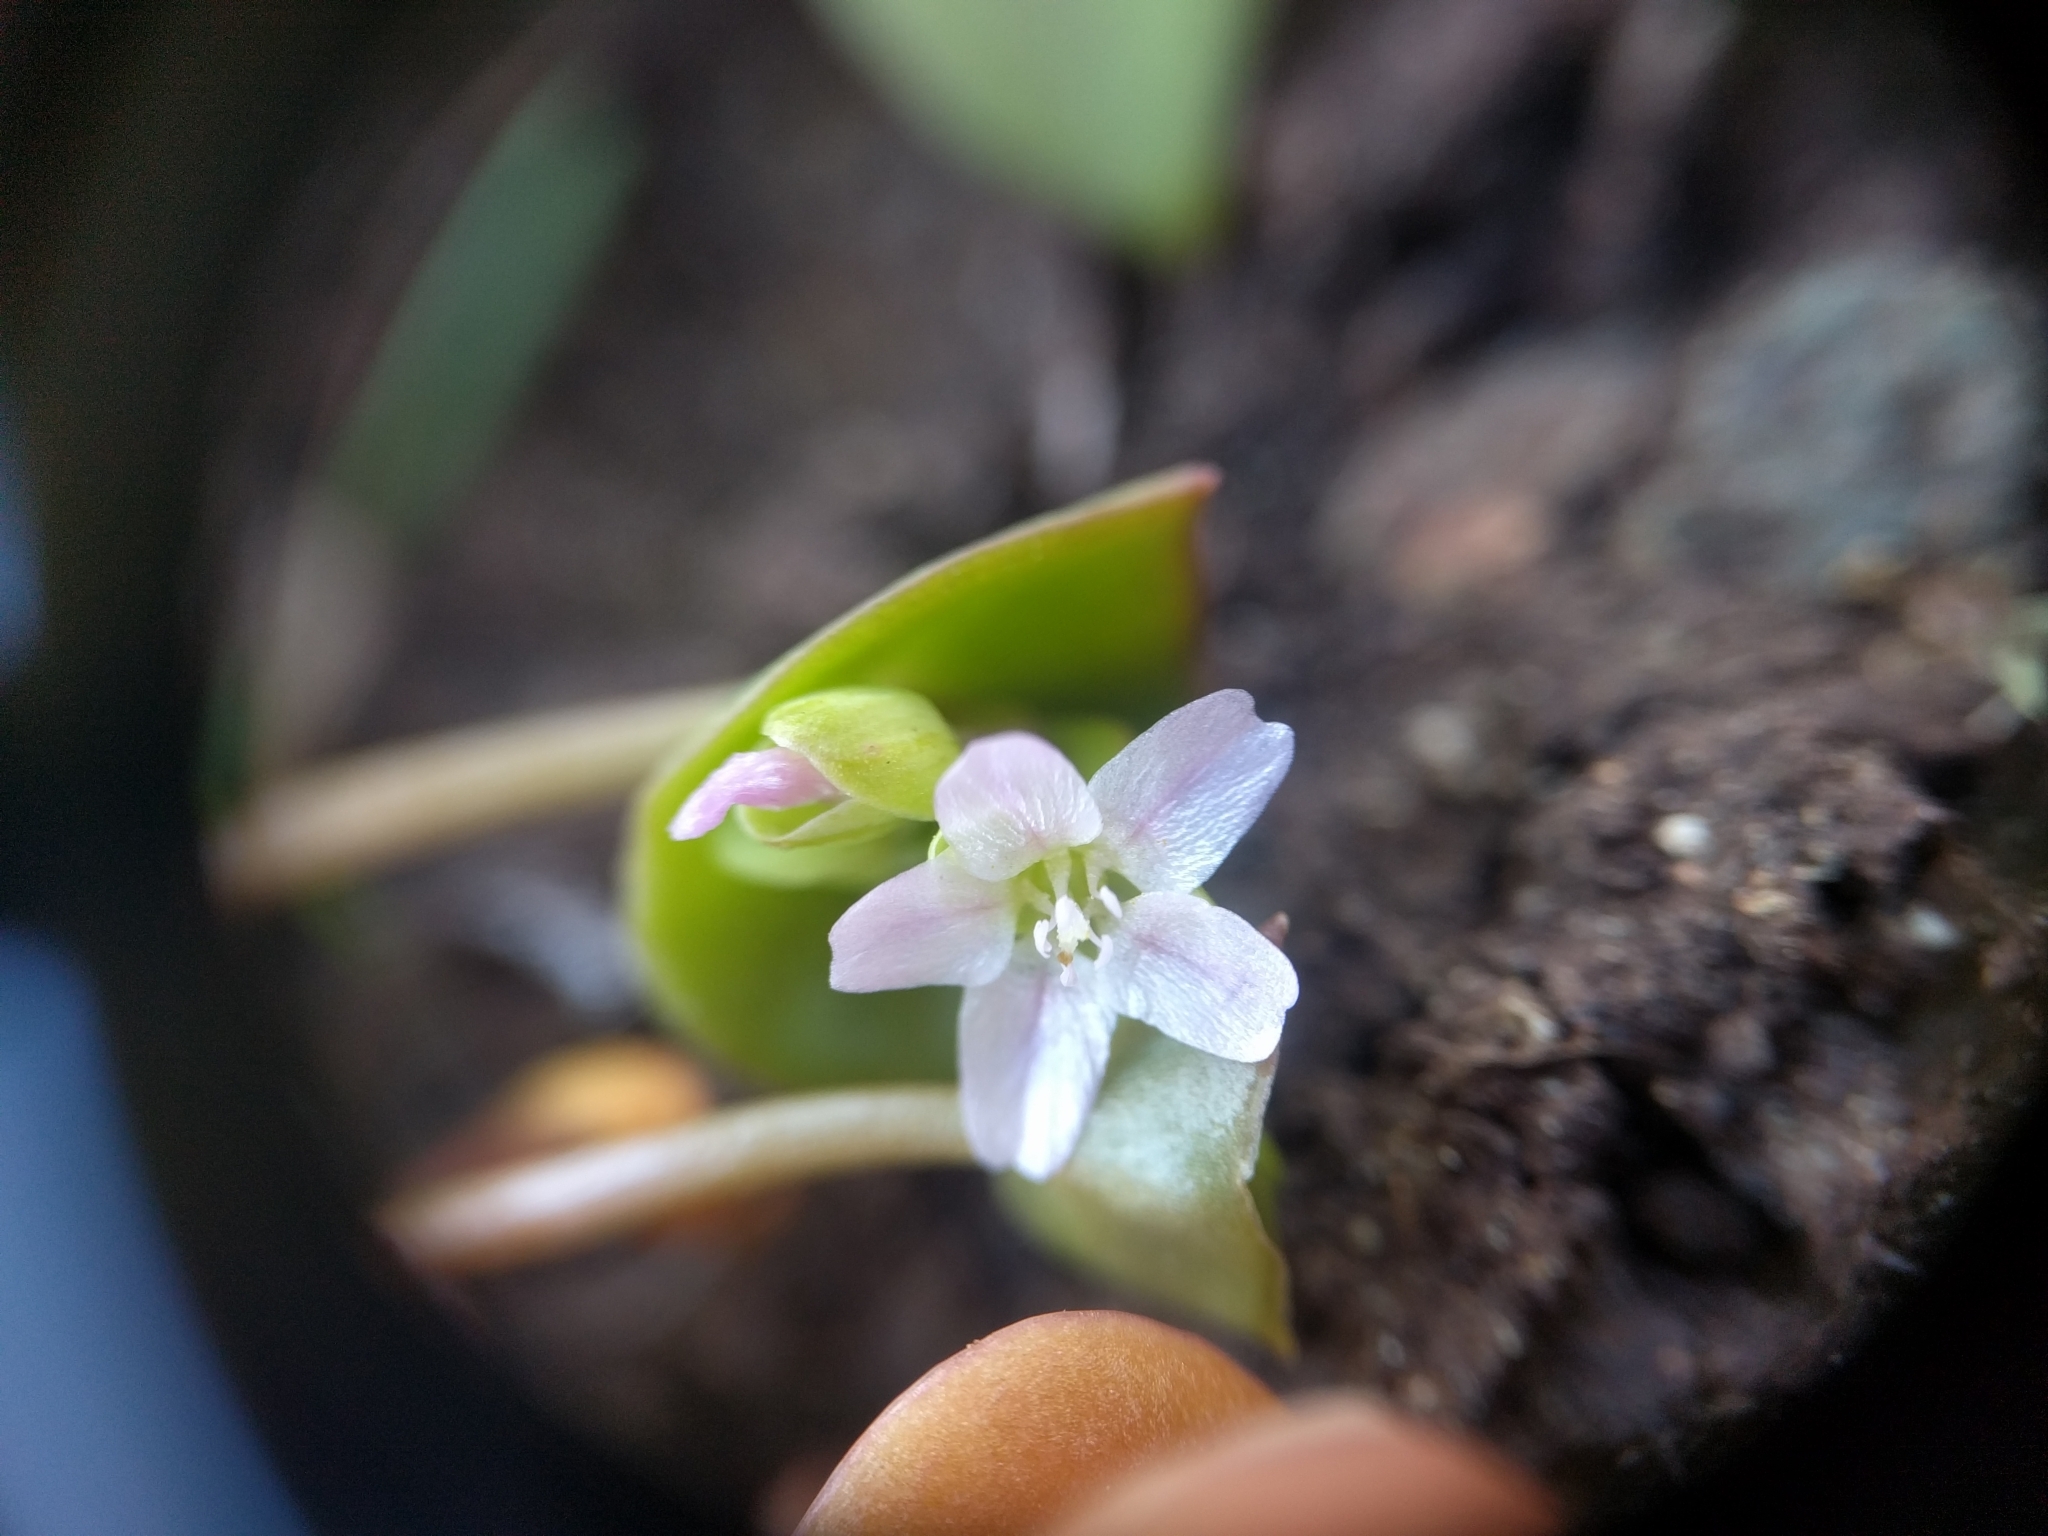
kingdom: Plantae
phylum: Tracheophyta
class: Magnoliopsida
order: Caryophyllales
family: Montiaceae
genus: Claytonia
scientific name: Claytonia perfoliata
